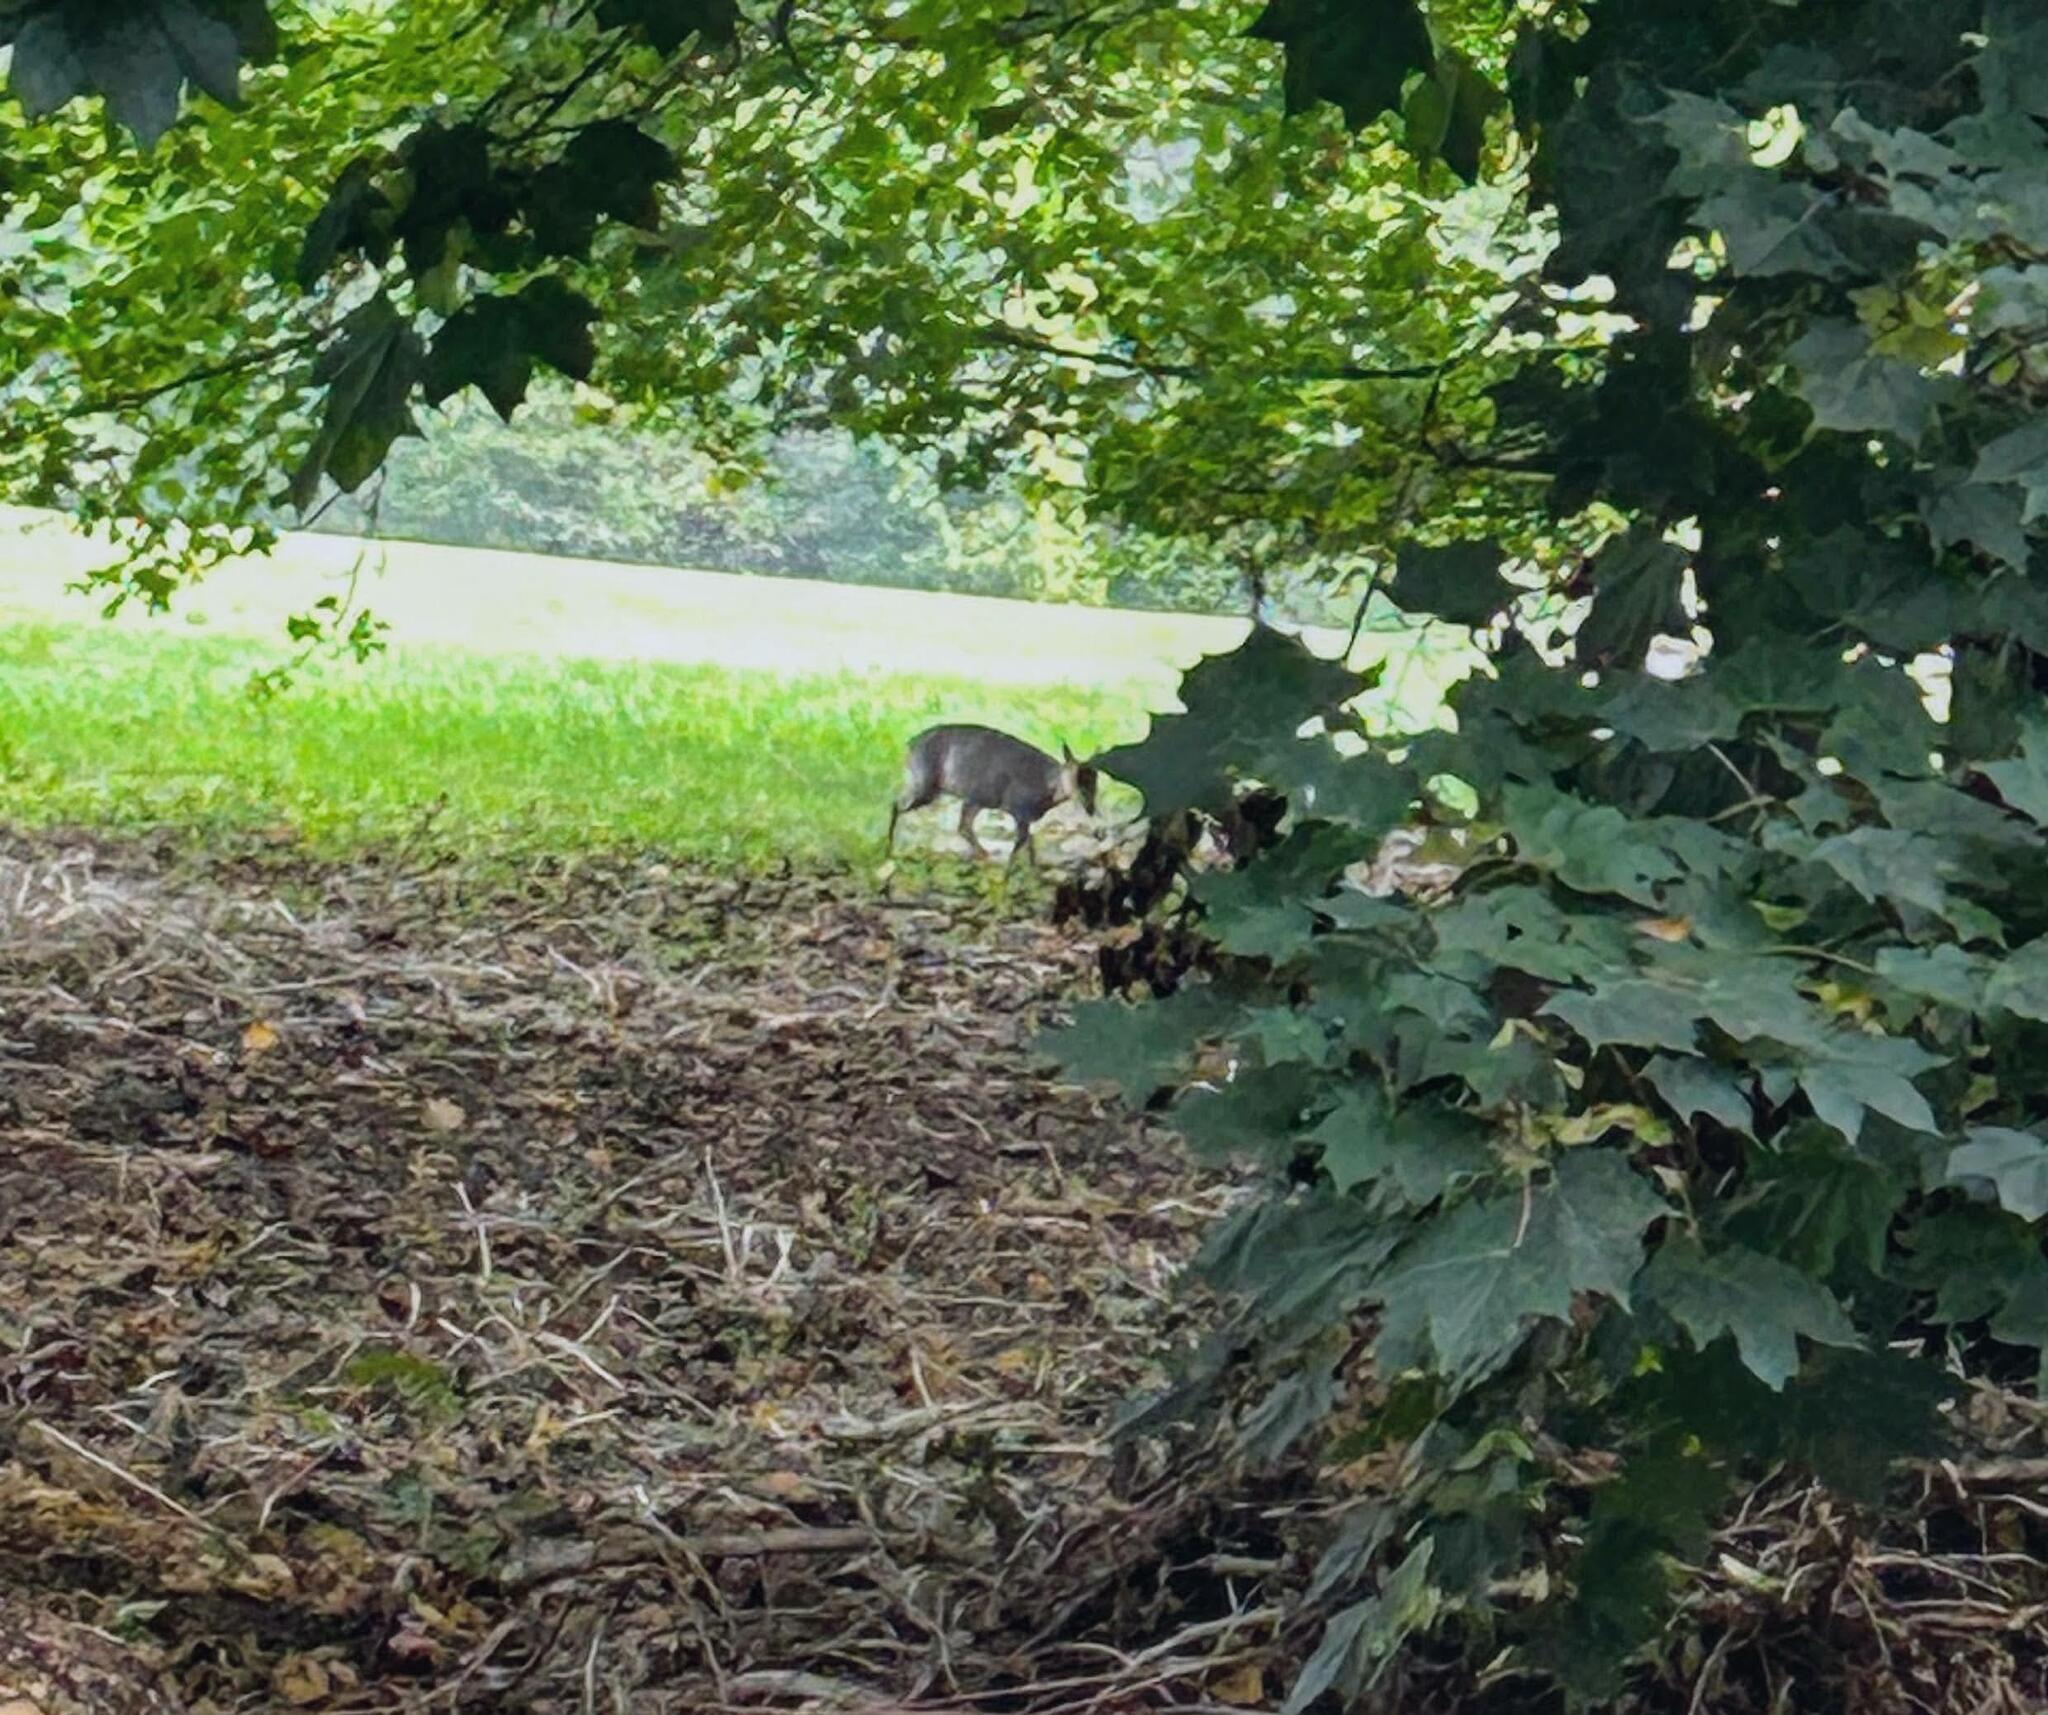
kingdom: Animalia
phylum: Chordata
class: Mammalia
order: Artiodactyla
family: Cervidae
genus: Muntiacus
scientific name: Muntiacus reevesi
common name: Reeves' muntjac
